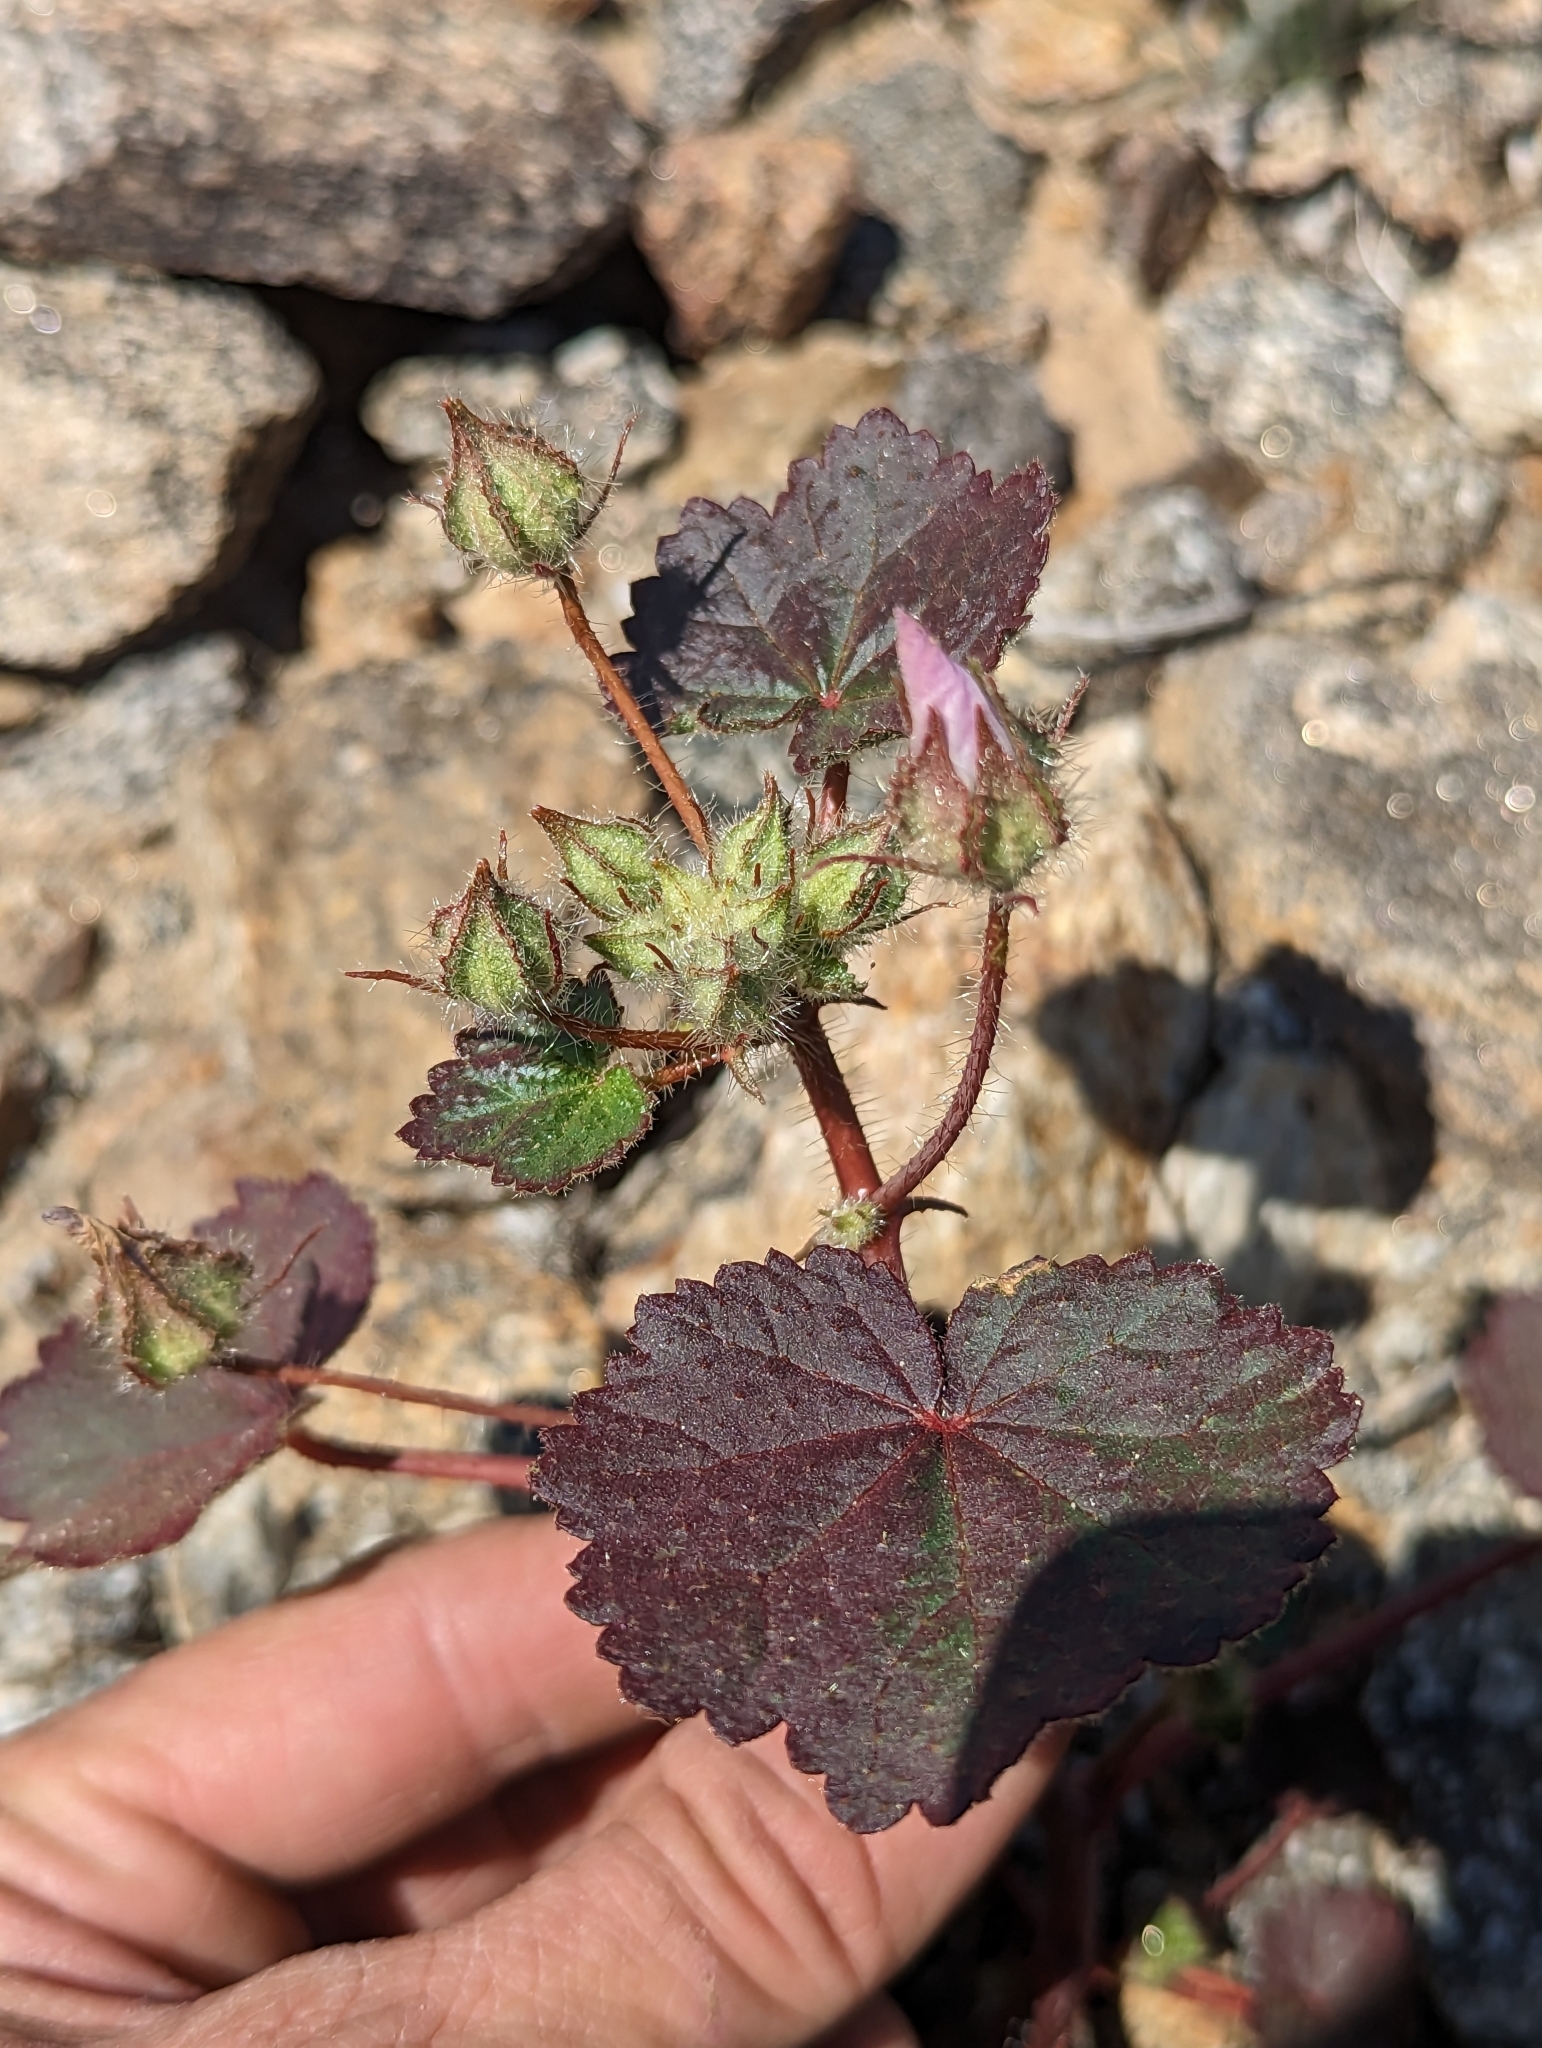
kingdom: Plantae
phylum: Tracheophyta
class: Magnoliopsida
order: Malvales
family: Malvaceae
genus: Eremalche
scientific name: Eremalche rotundifolia
